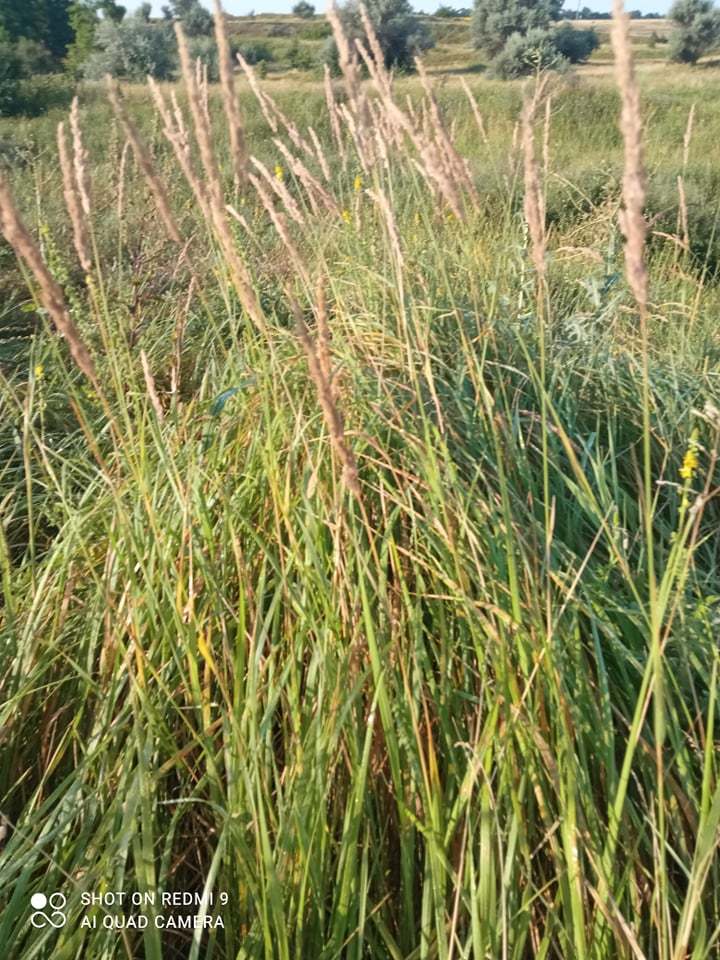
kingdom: Plantae
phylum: Tracheophyta
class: Liliopsida
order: Poales
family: Poaceae
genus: Calamagrostis
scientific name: Calamagrostis epigejos
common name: Wood small-reed
